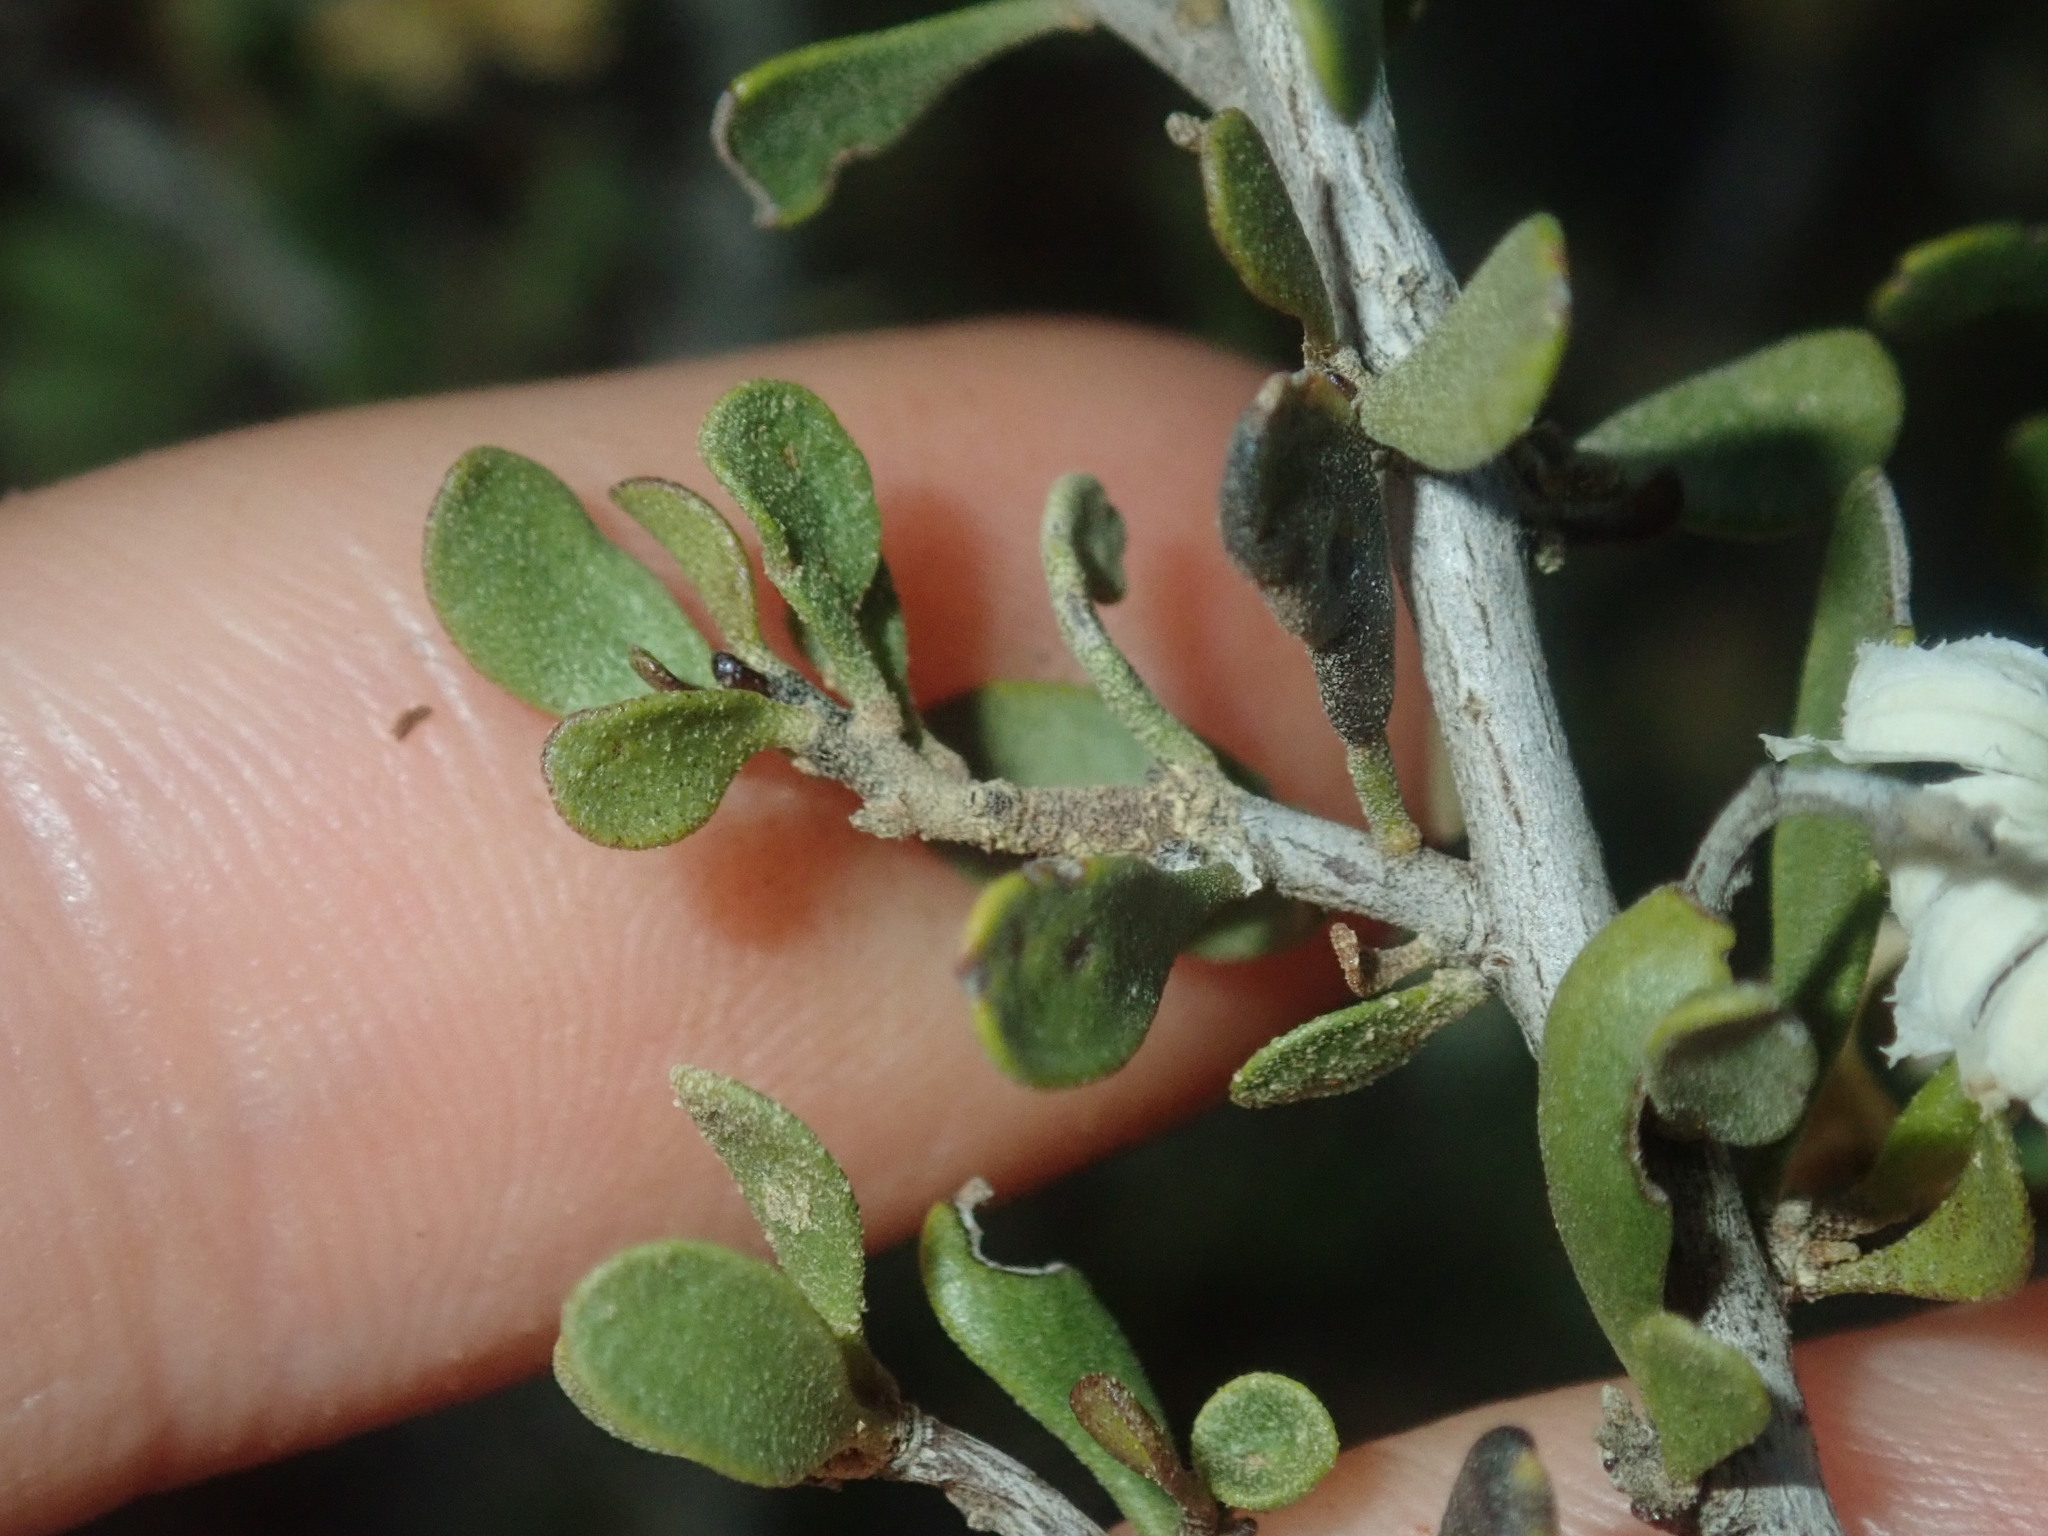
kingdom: Plantae
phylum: Tracheophyta
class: Magnoliopsida
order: Asterales
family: Goodeniaceae
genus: Scaevola
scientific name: Scaevola spinescens
